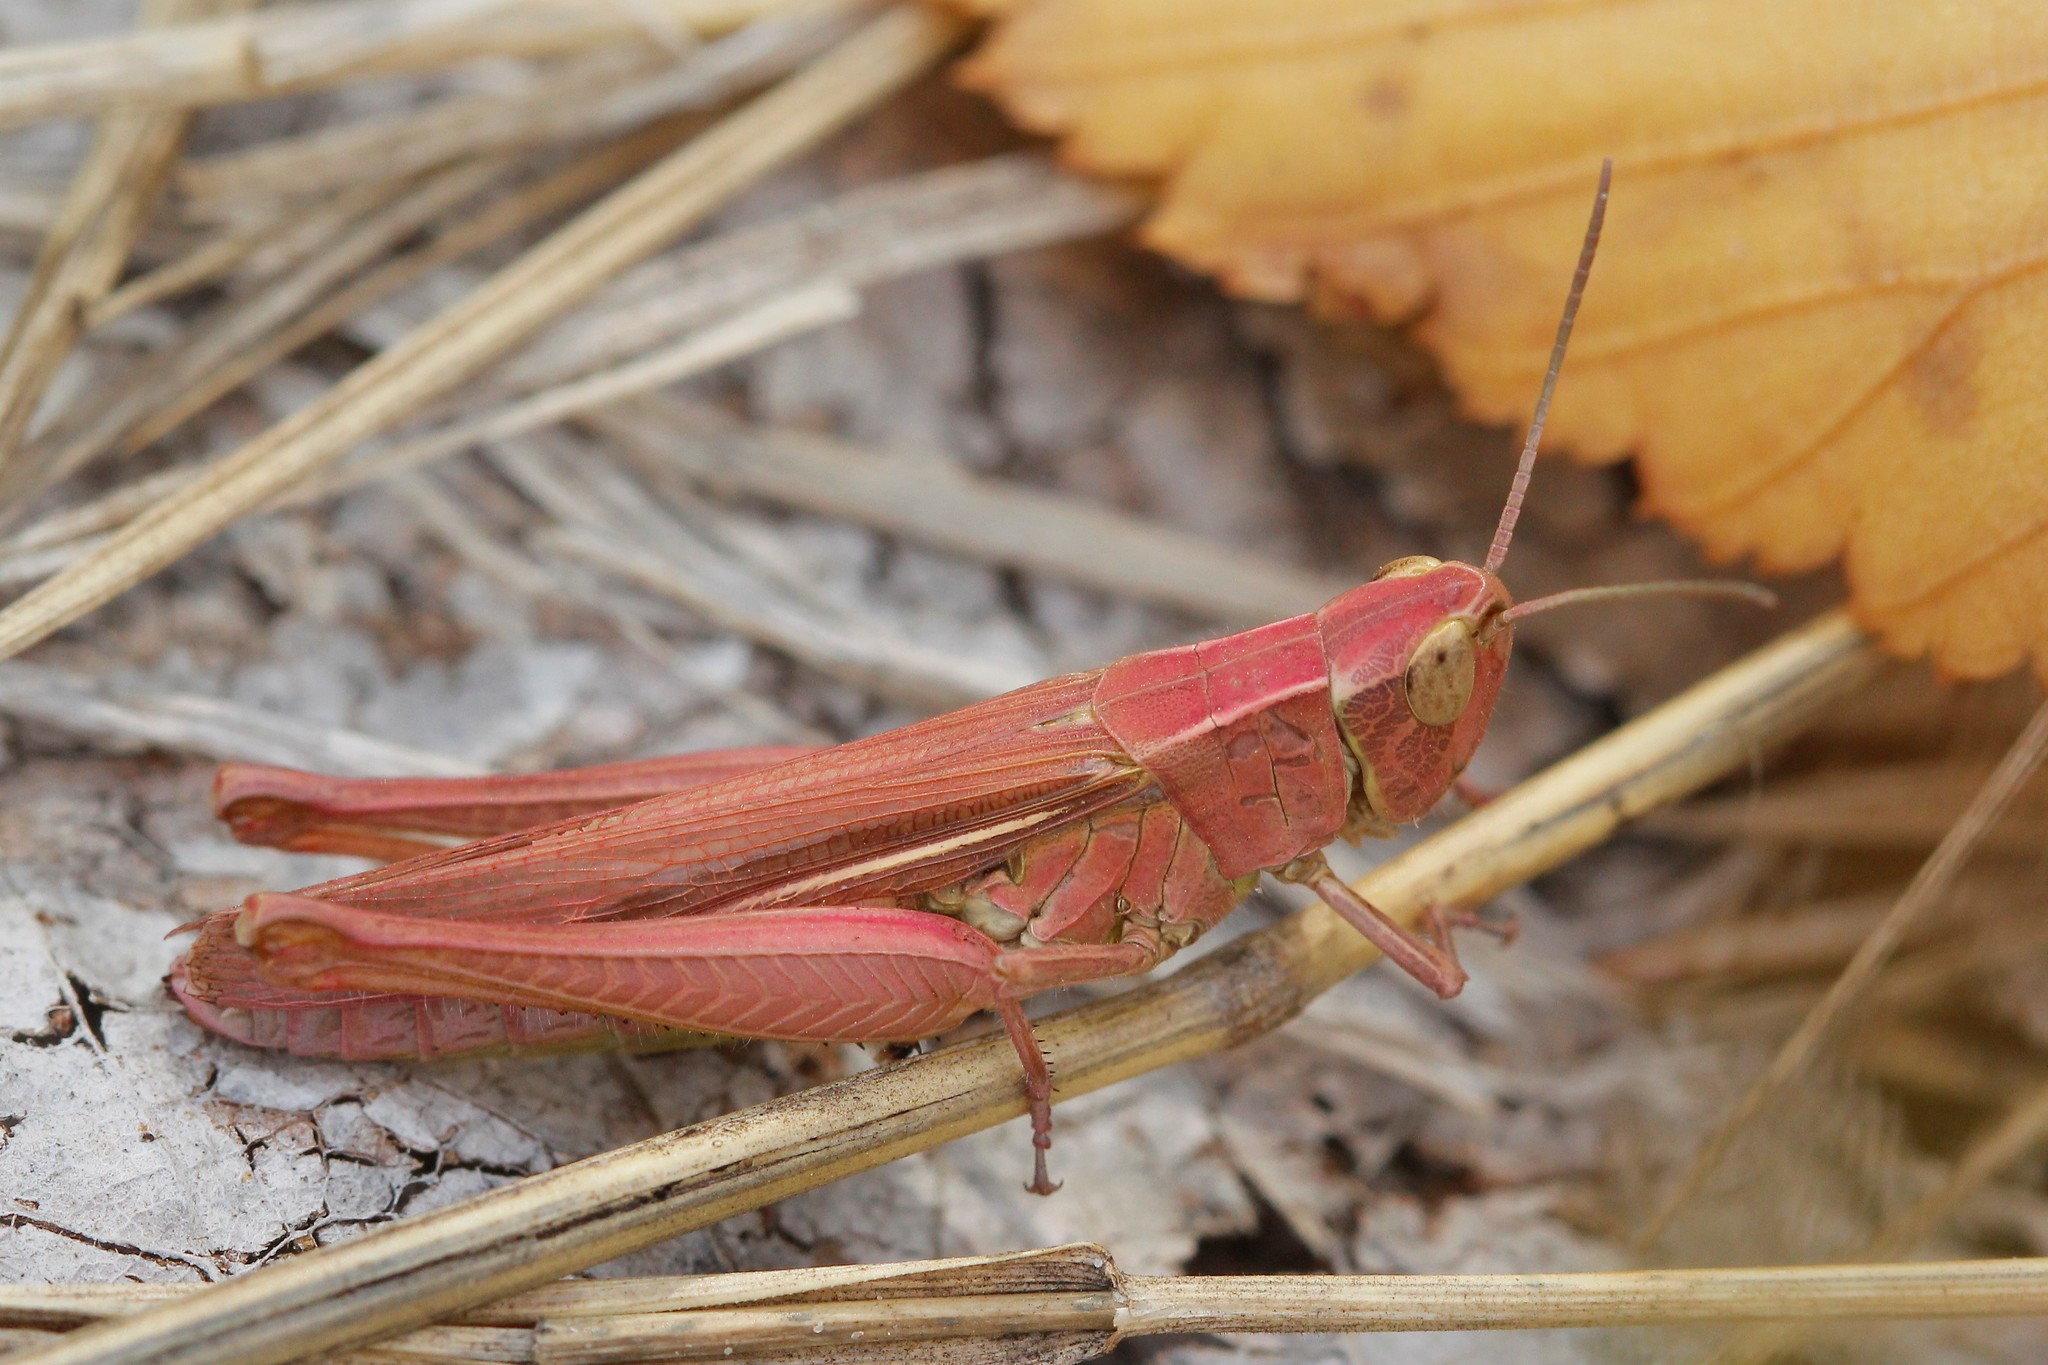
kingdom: Animalia
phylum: Arthropoda
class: Insecta
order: Orthoptera
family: Acrididae
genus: Chorthippus
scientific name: Chorthippus dichrous
